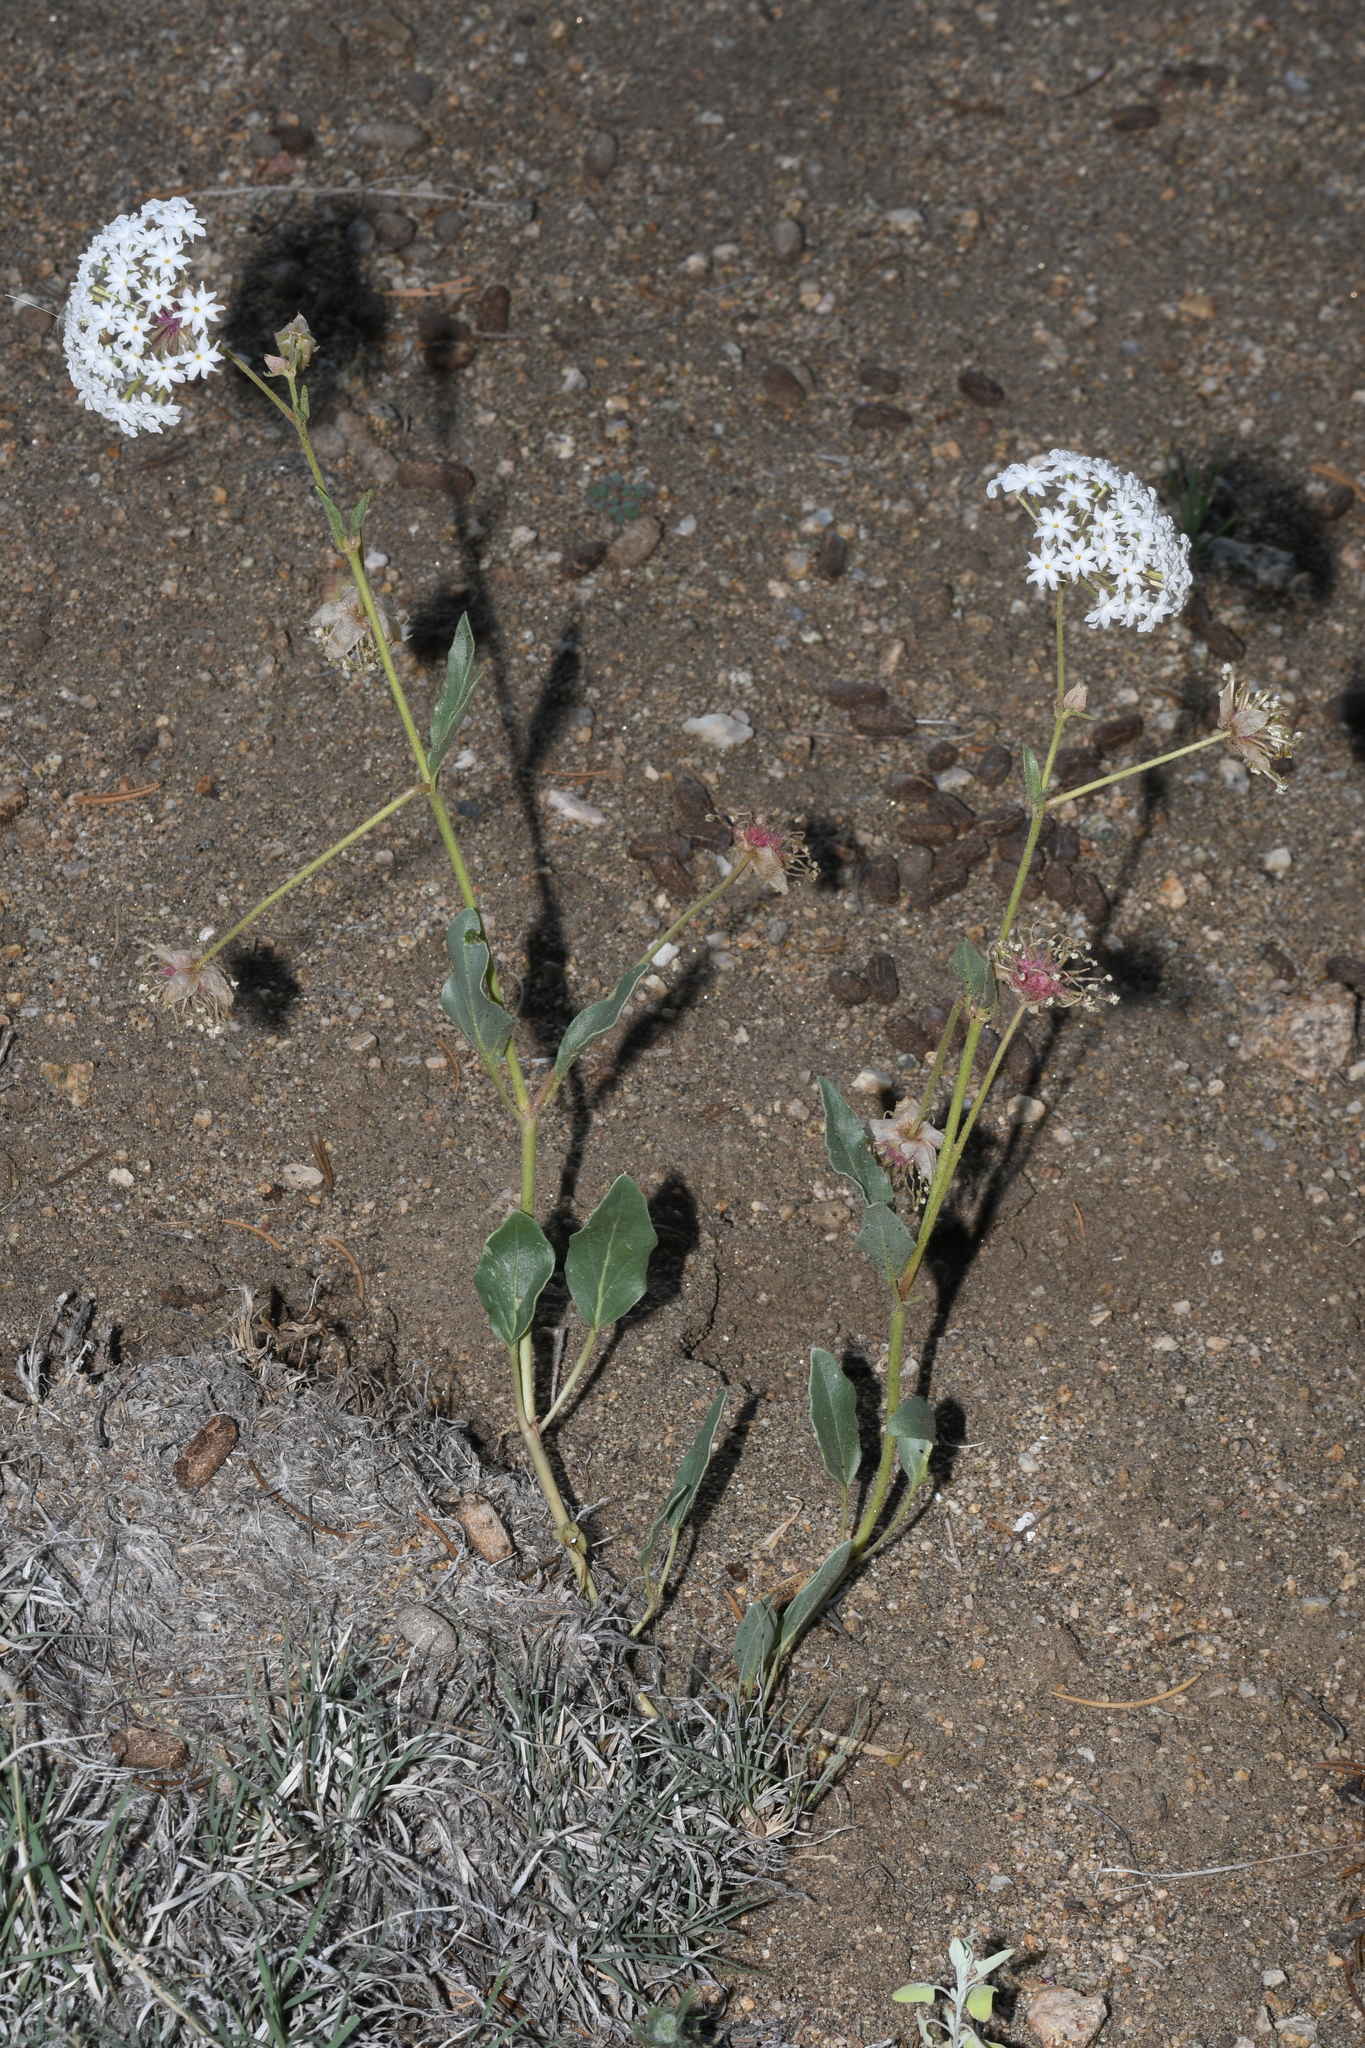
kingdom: Plantae
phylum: Tracheophyta
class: Magnoliopsida
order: Caryophyllales
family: Nyctaginaceae
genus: Abronia
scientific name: Abronia fragrans
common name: Fragrant sand-verbena
